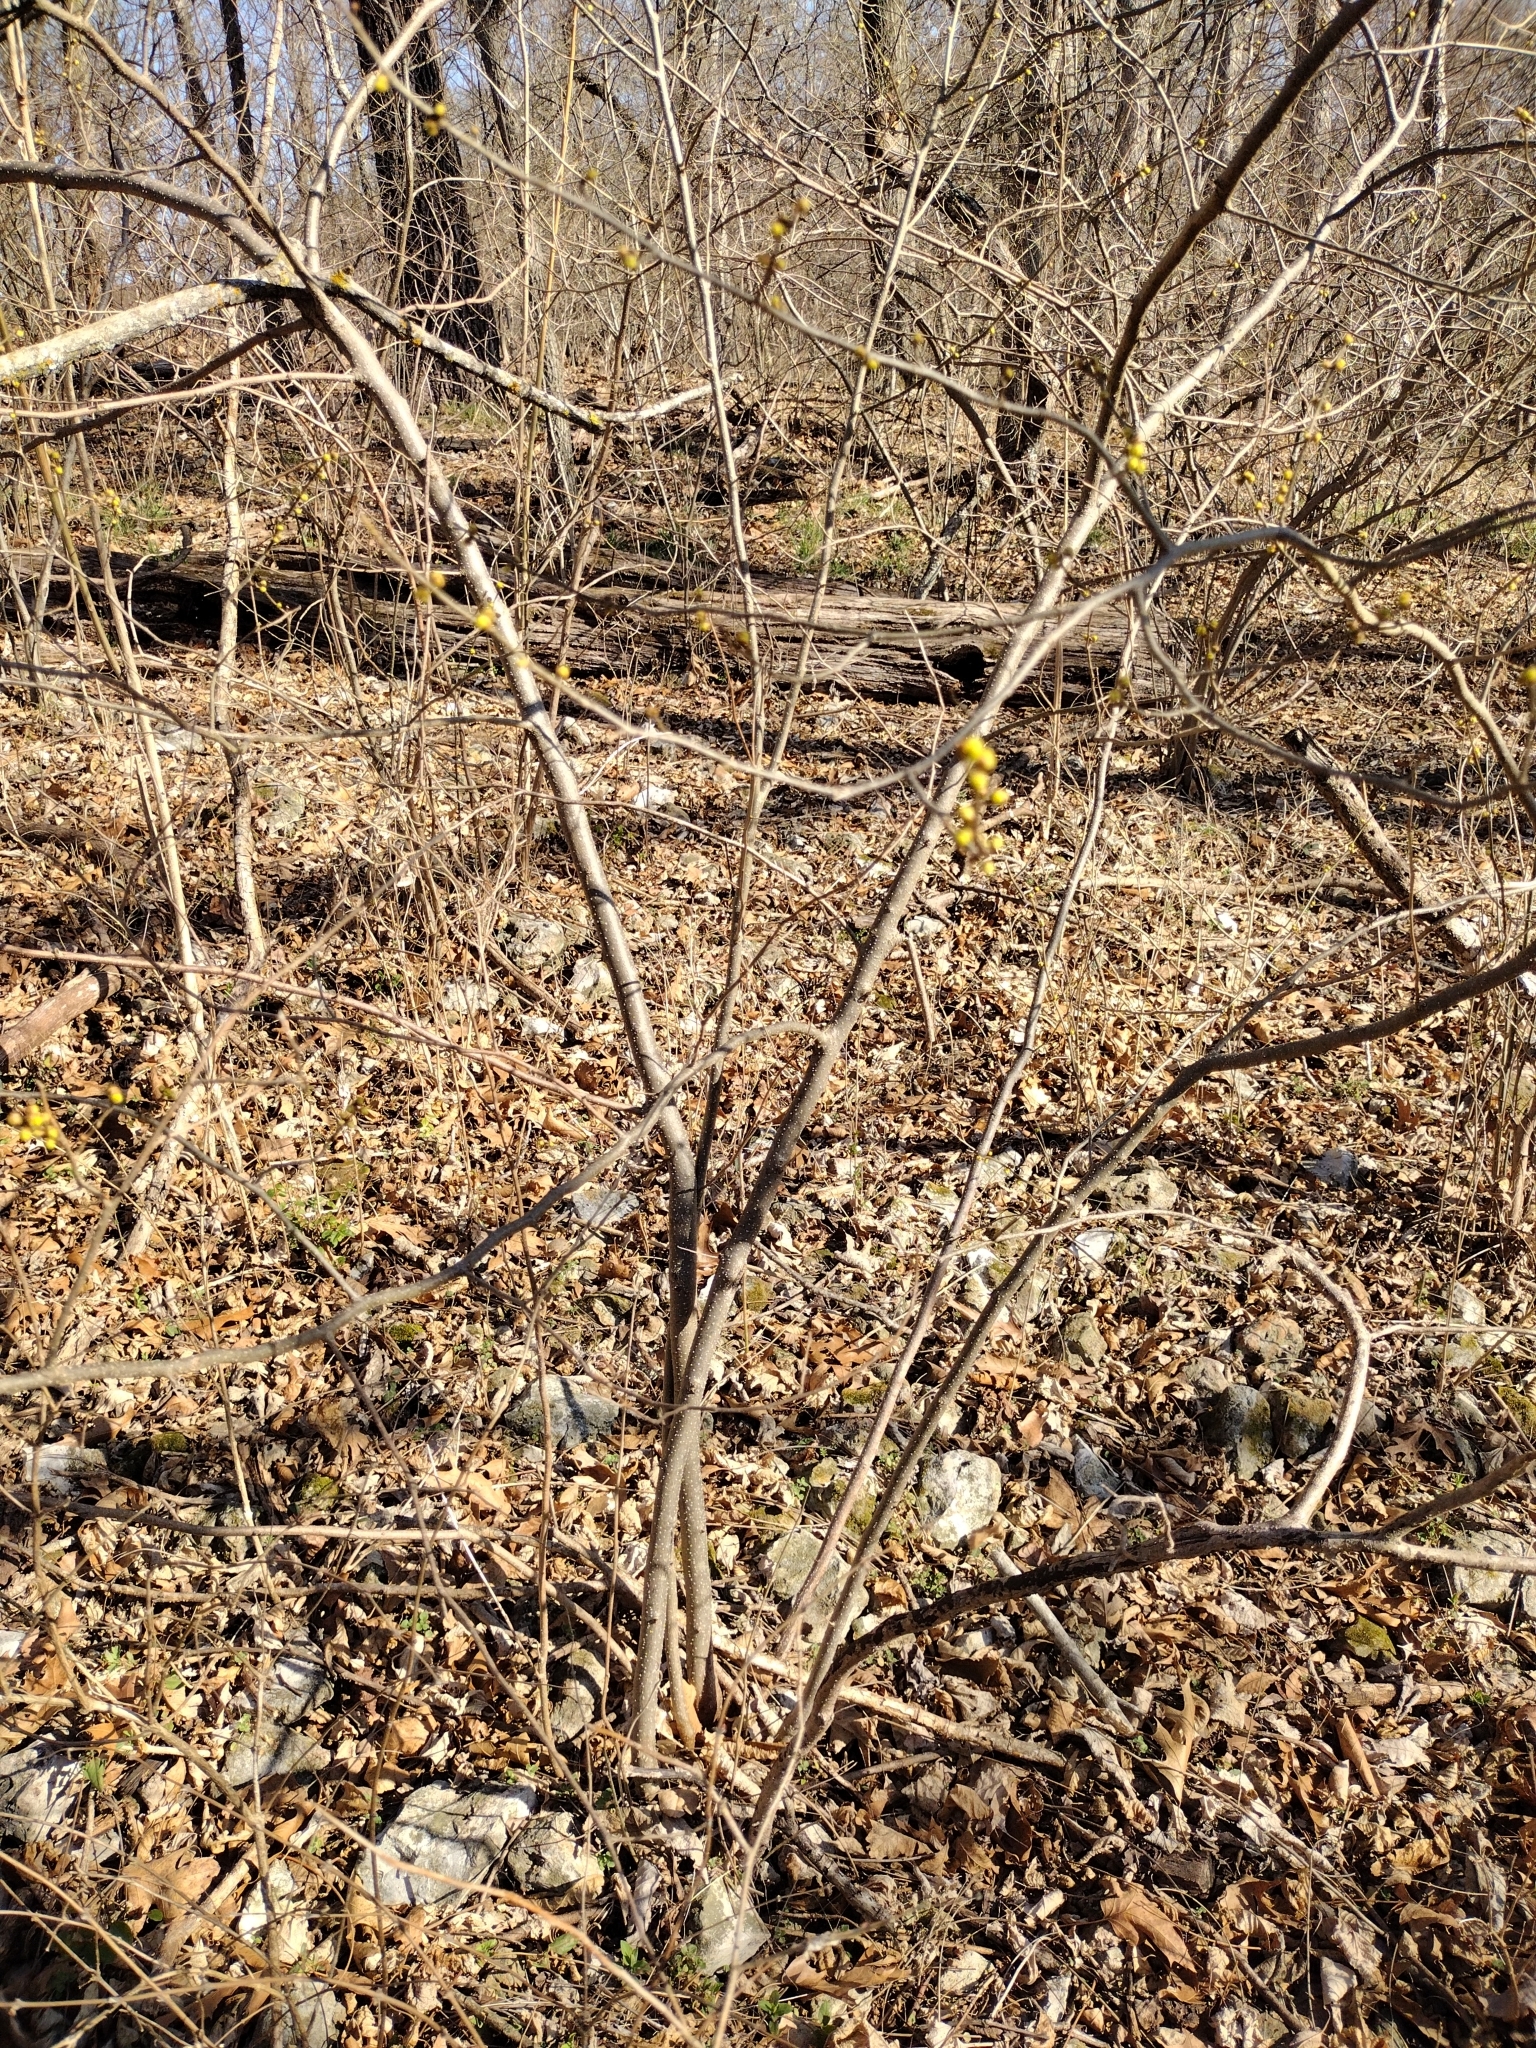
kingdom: Plantae
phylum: Tracheophyta
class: Magnoliopsida
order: Laurales
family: Lauraceae
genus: Lindera
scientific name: Lindera benzoin
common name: Spicebush
